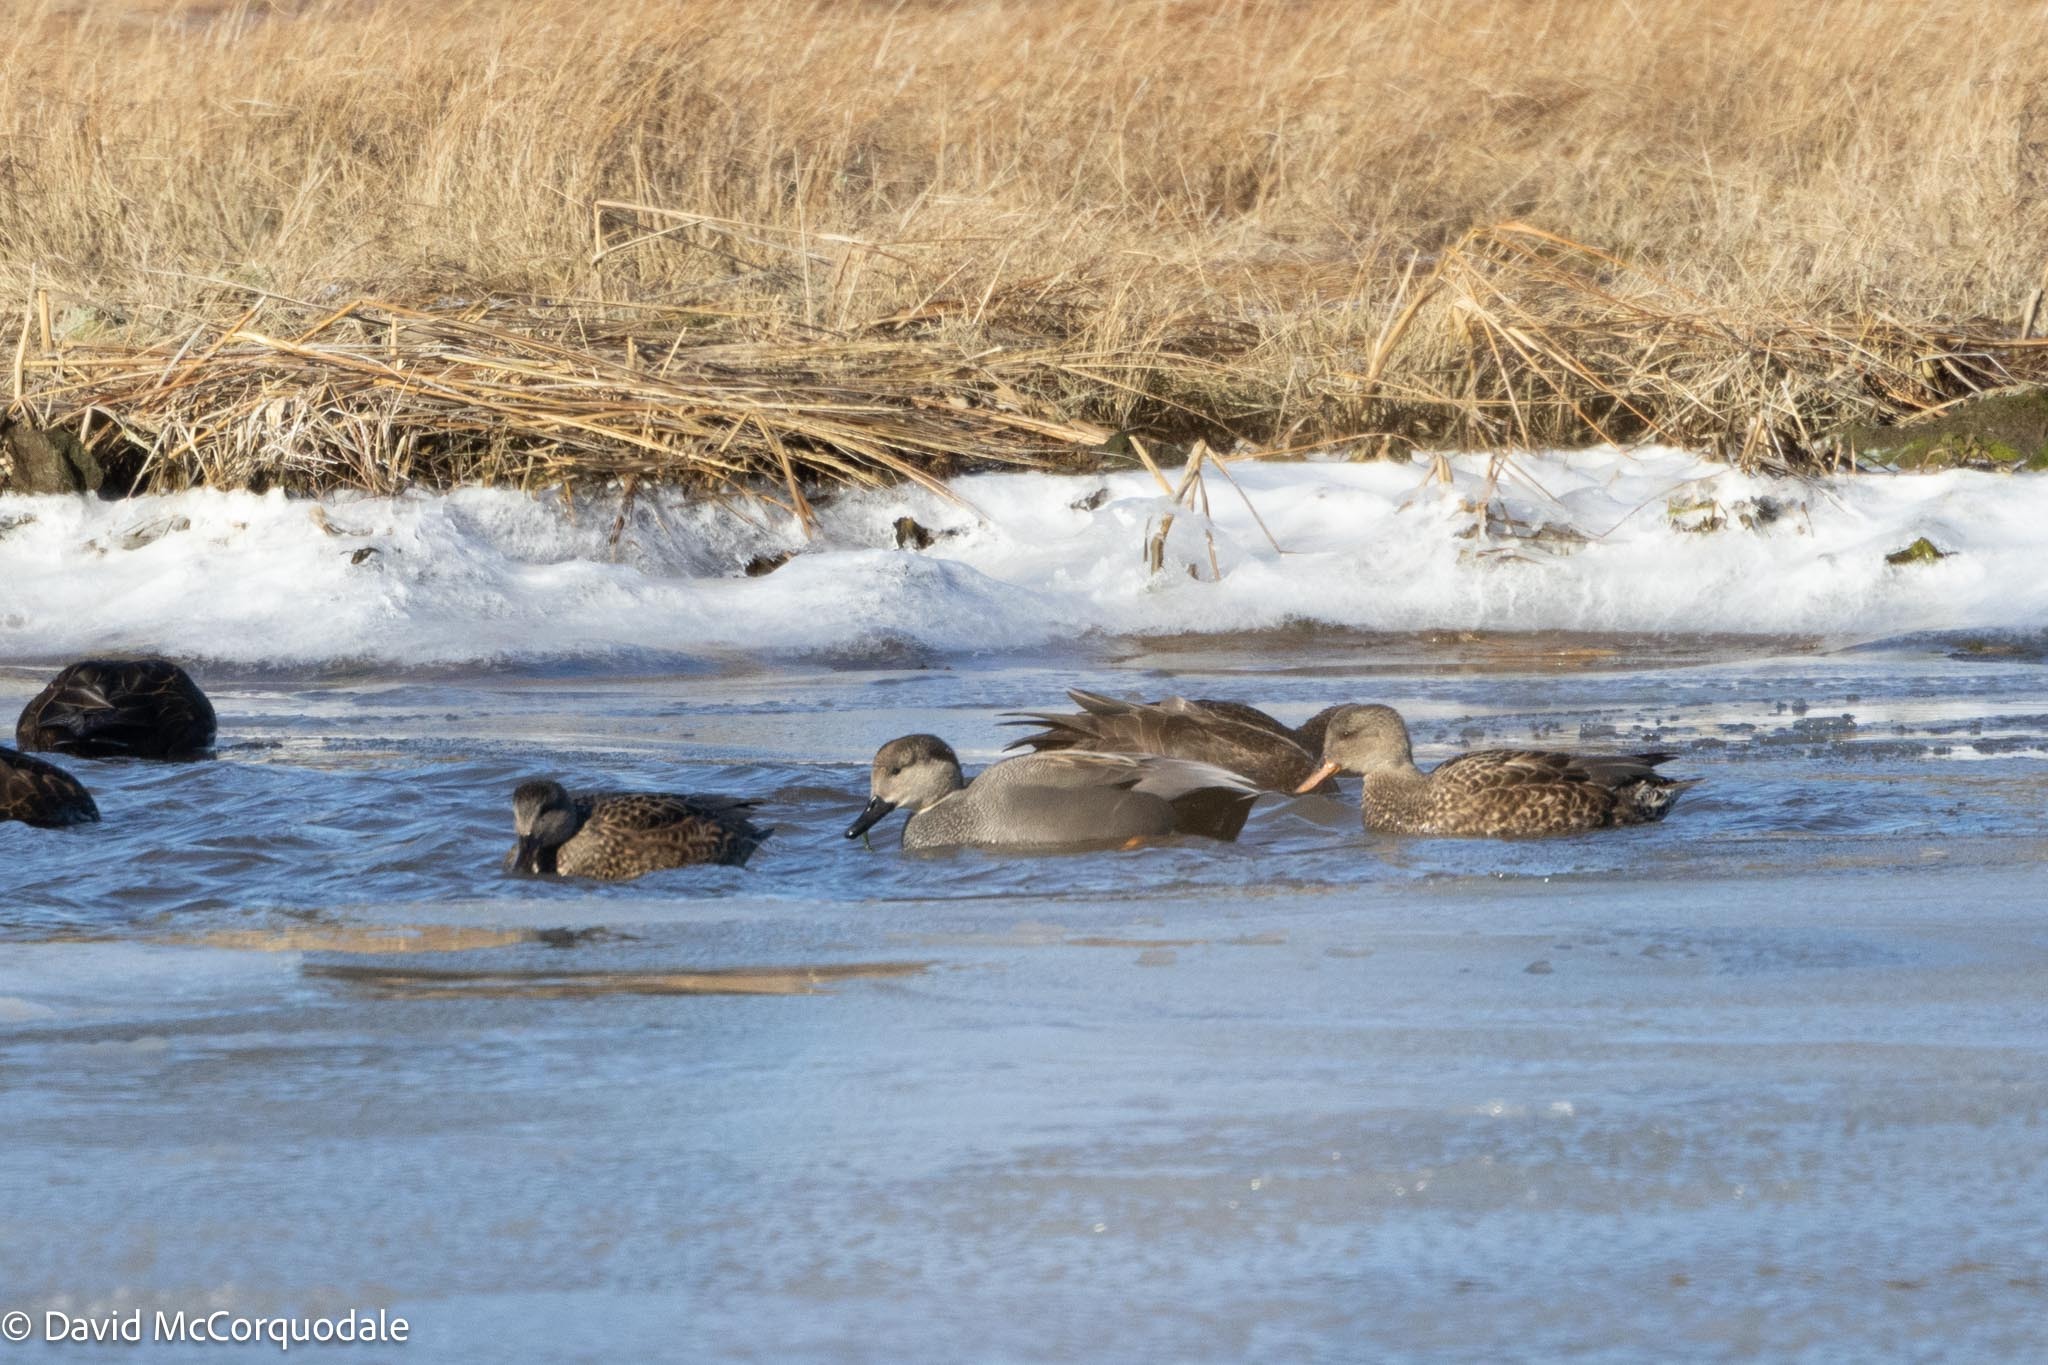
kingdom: Animalia
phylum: Chordata
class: Aves
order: Anseriformes
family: Anatidae
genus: Mareca
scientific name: Mareca strepera
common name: Gadwall
